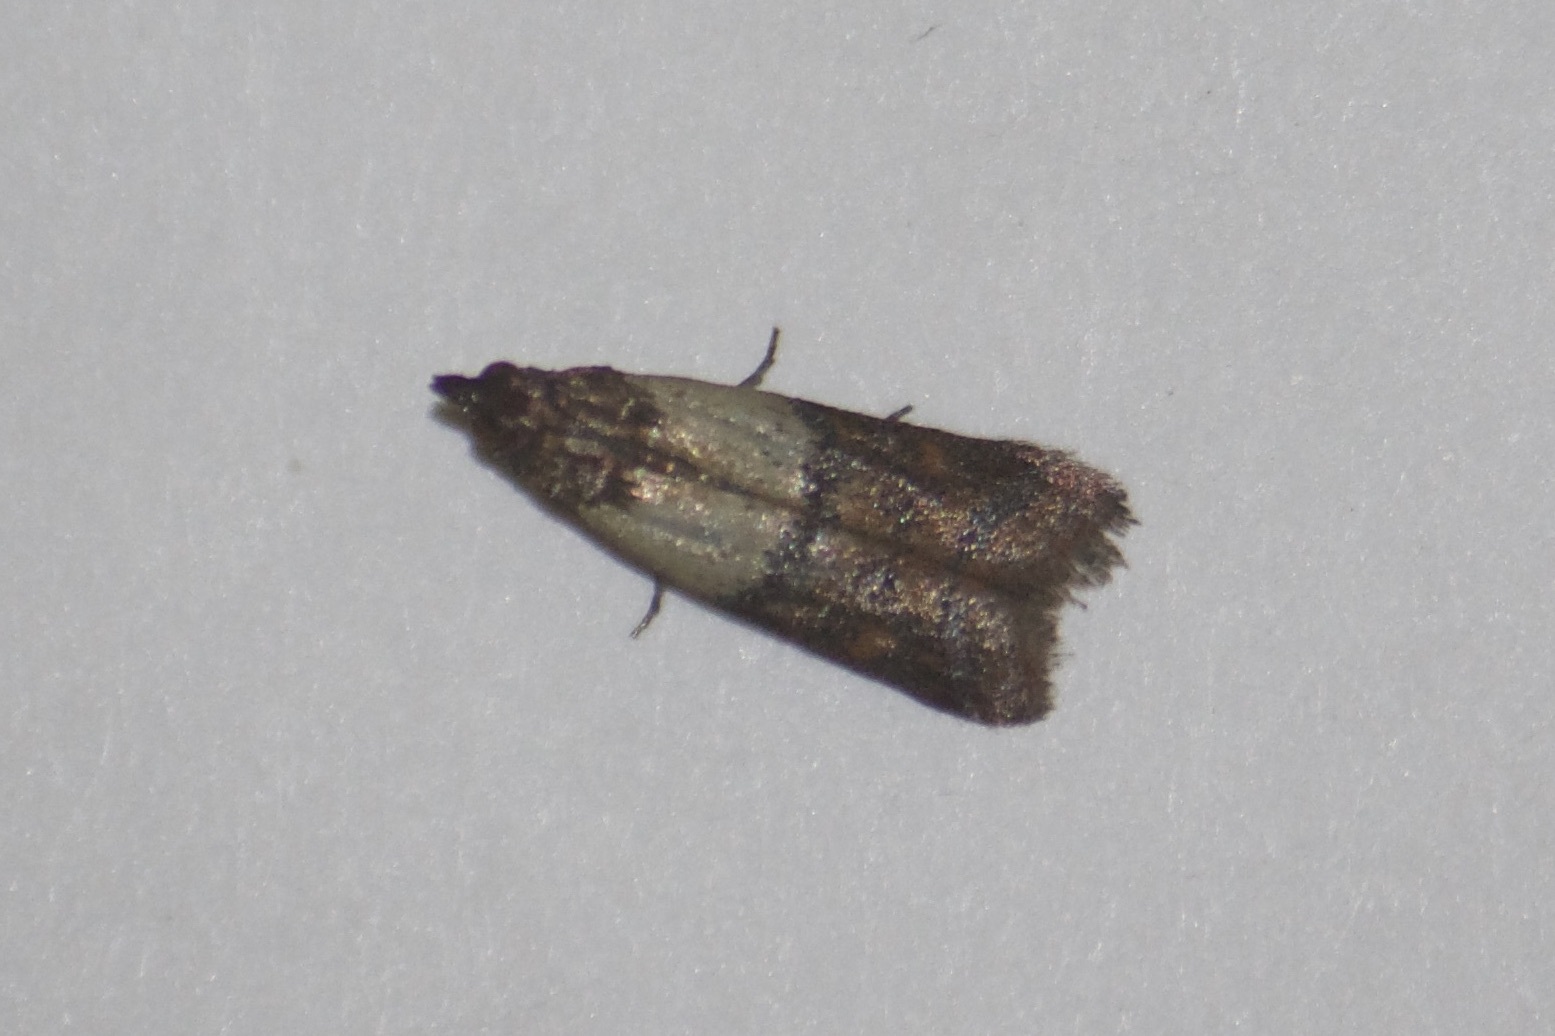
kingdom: Animalia
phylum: Arthropoda
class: Insecta
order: Lepidoptera
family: Pyralidae
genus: Plodia
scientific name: Plodia interpunctella
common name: Indian meal moth
